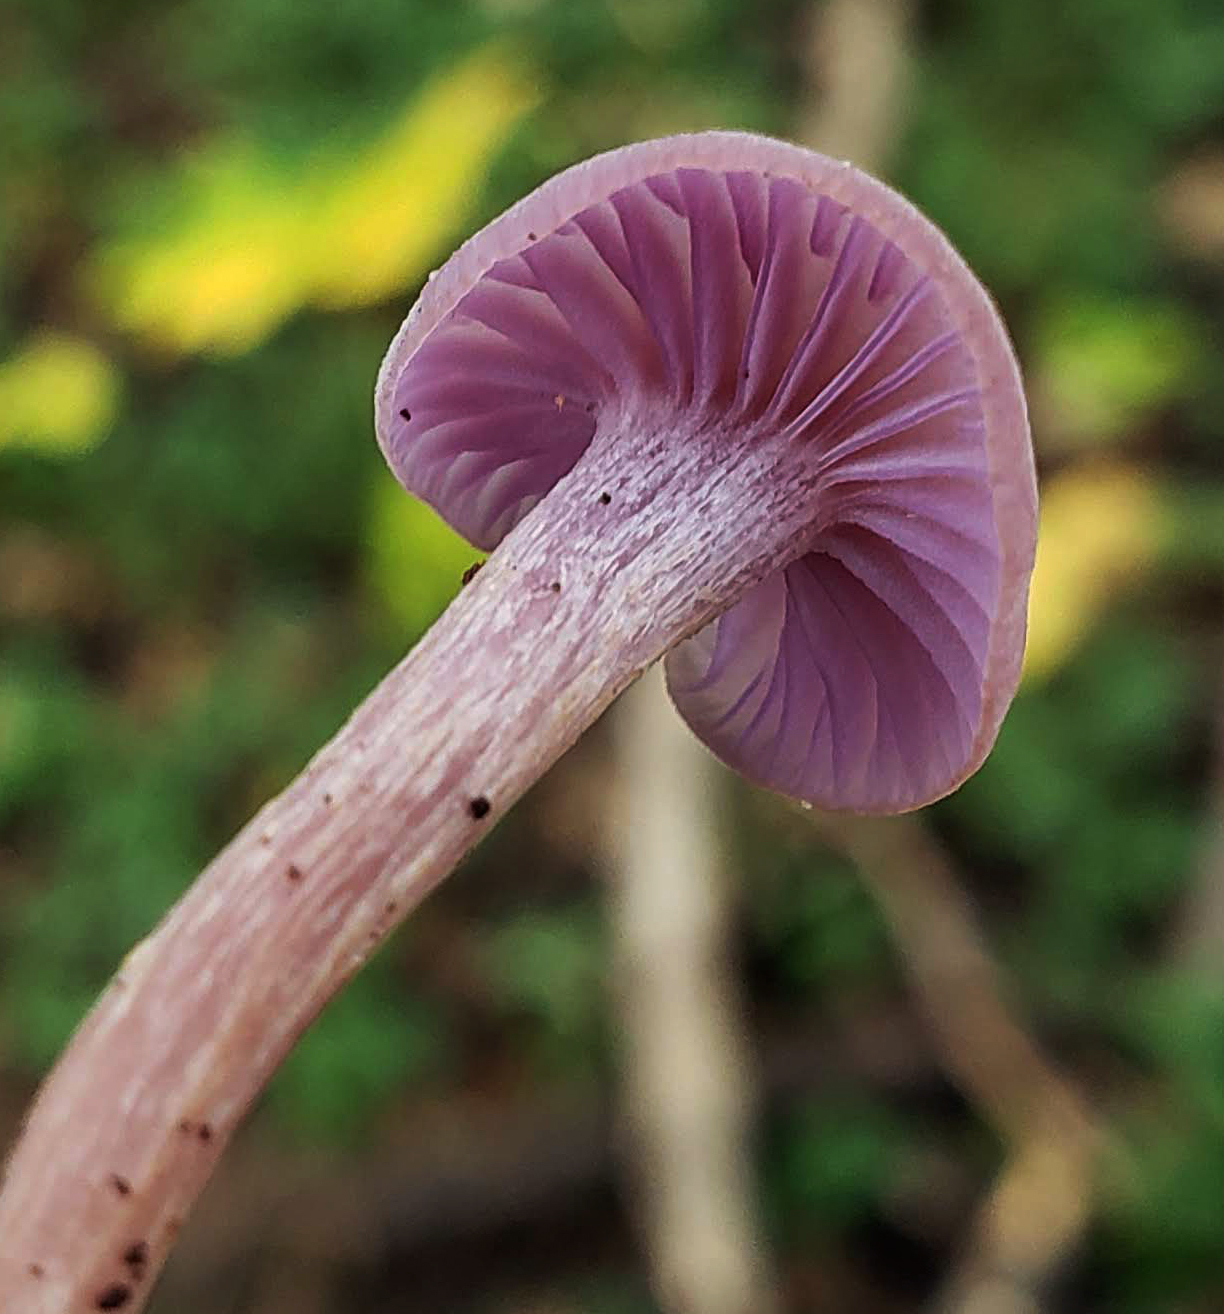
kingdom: Fungi
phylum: Basidiomycota
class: Agaricomycetes
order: Agaricales
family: Hydnangiaceae
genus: Laccaria
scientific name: Laccaria amethystina
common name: Amethyst deceiver
